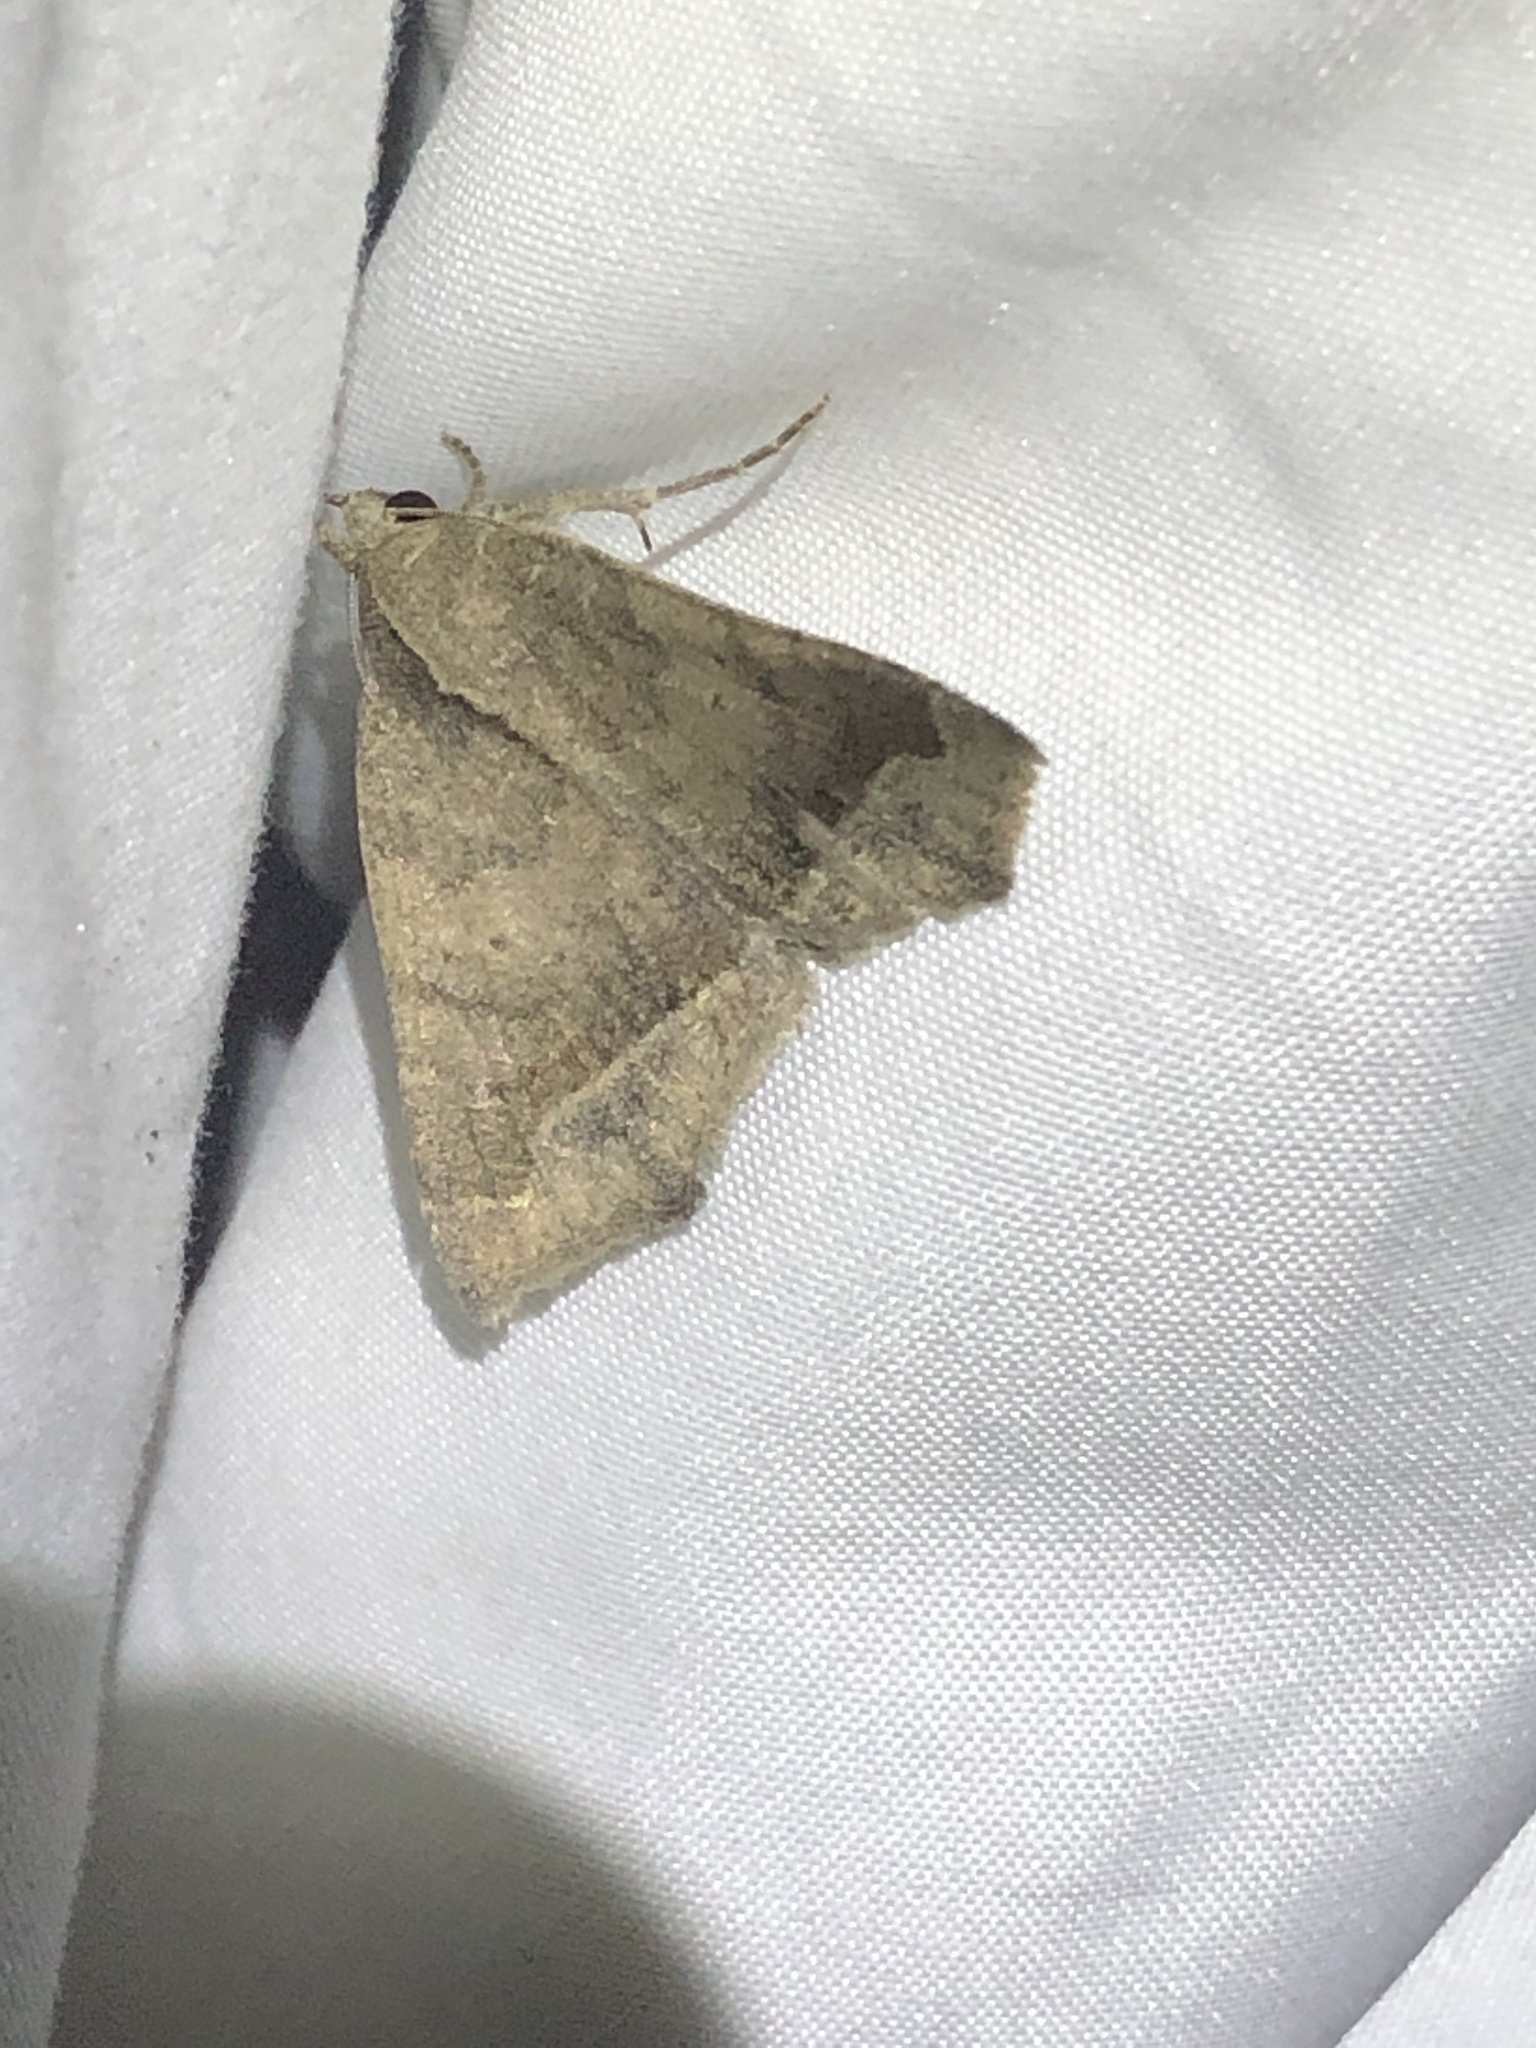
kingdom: Animalia
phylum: Arthropoda
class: Insecta
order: Lepidoptera
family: Erebidae
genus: Bendisodes
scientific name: Bendisodes aeolia
